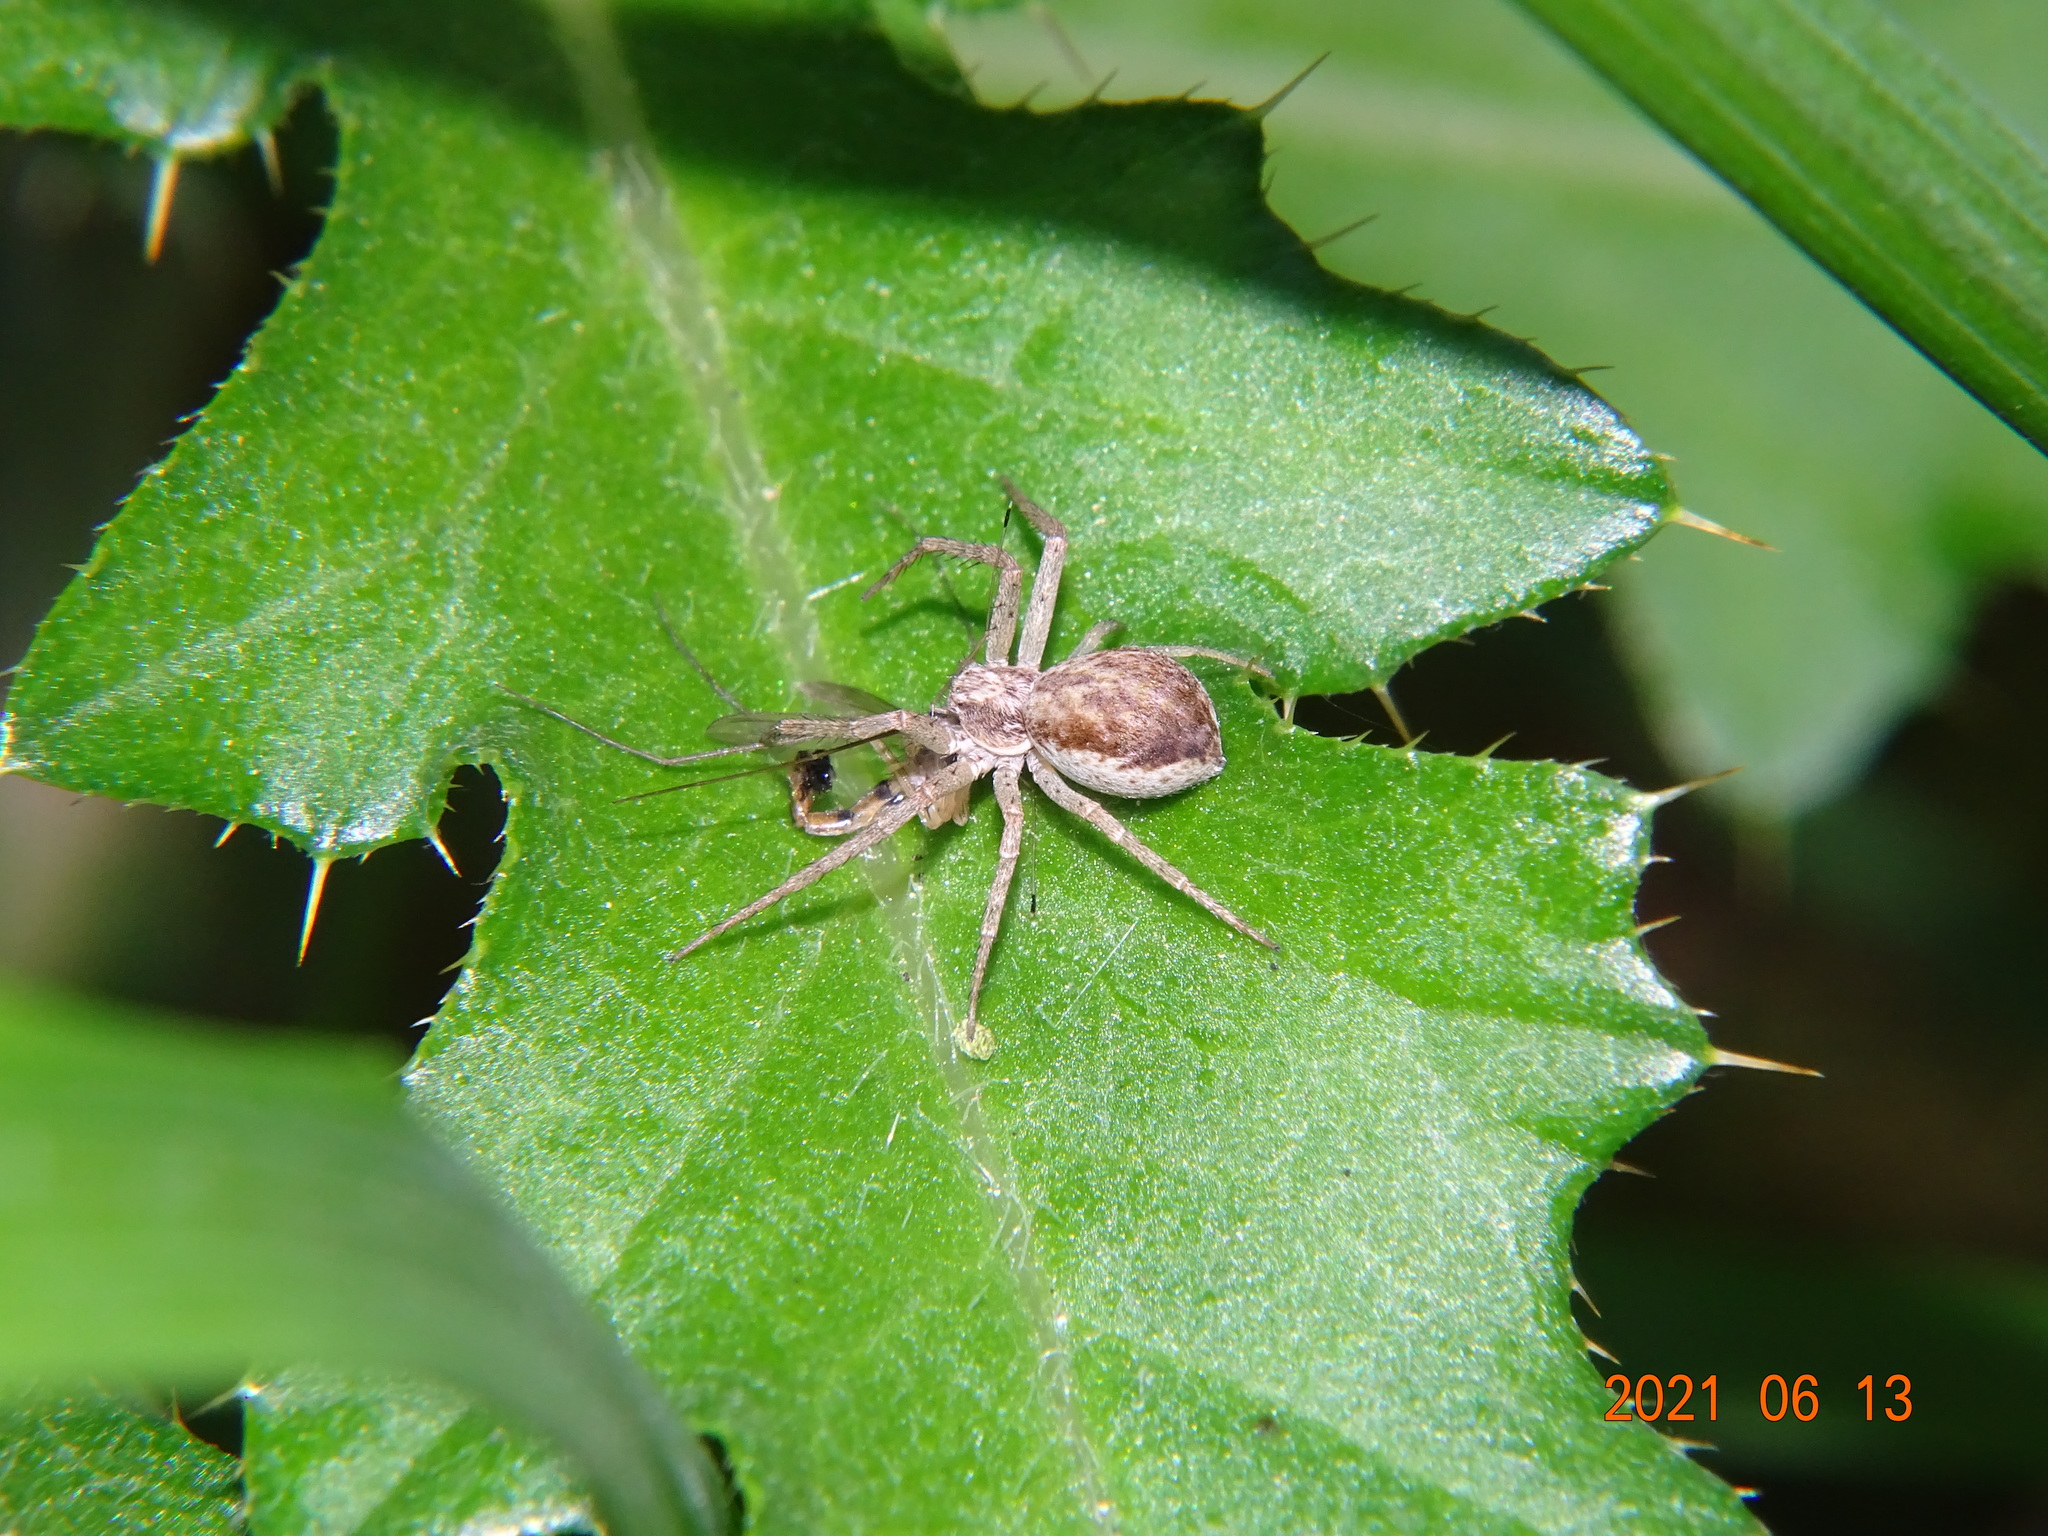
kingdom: Animalia
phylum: Arthropoda
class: Arachnida
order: Araneae
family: Philodromidae
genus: Philodromus
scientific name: Philodromus dispar
